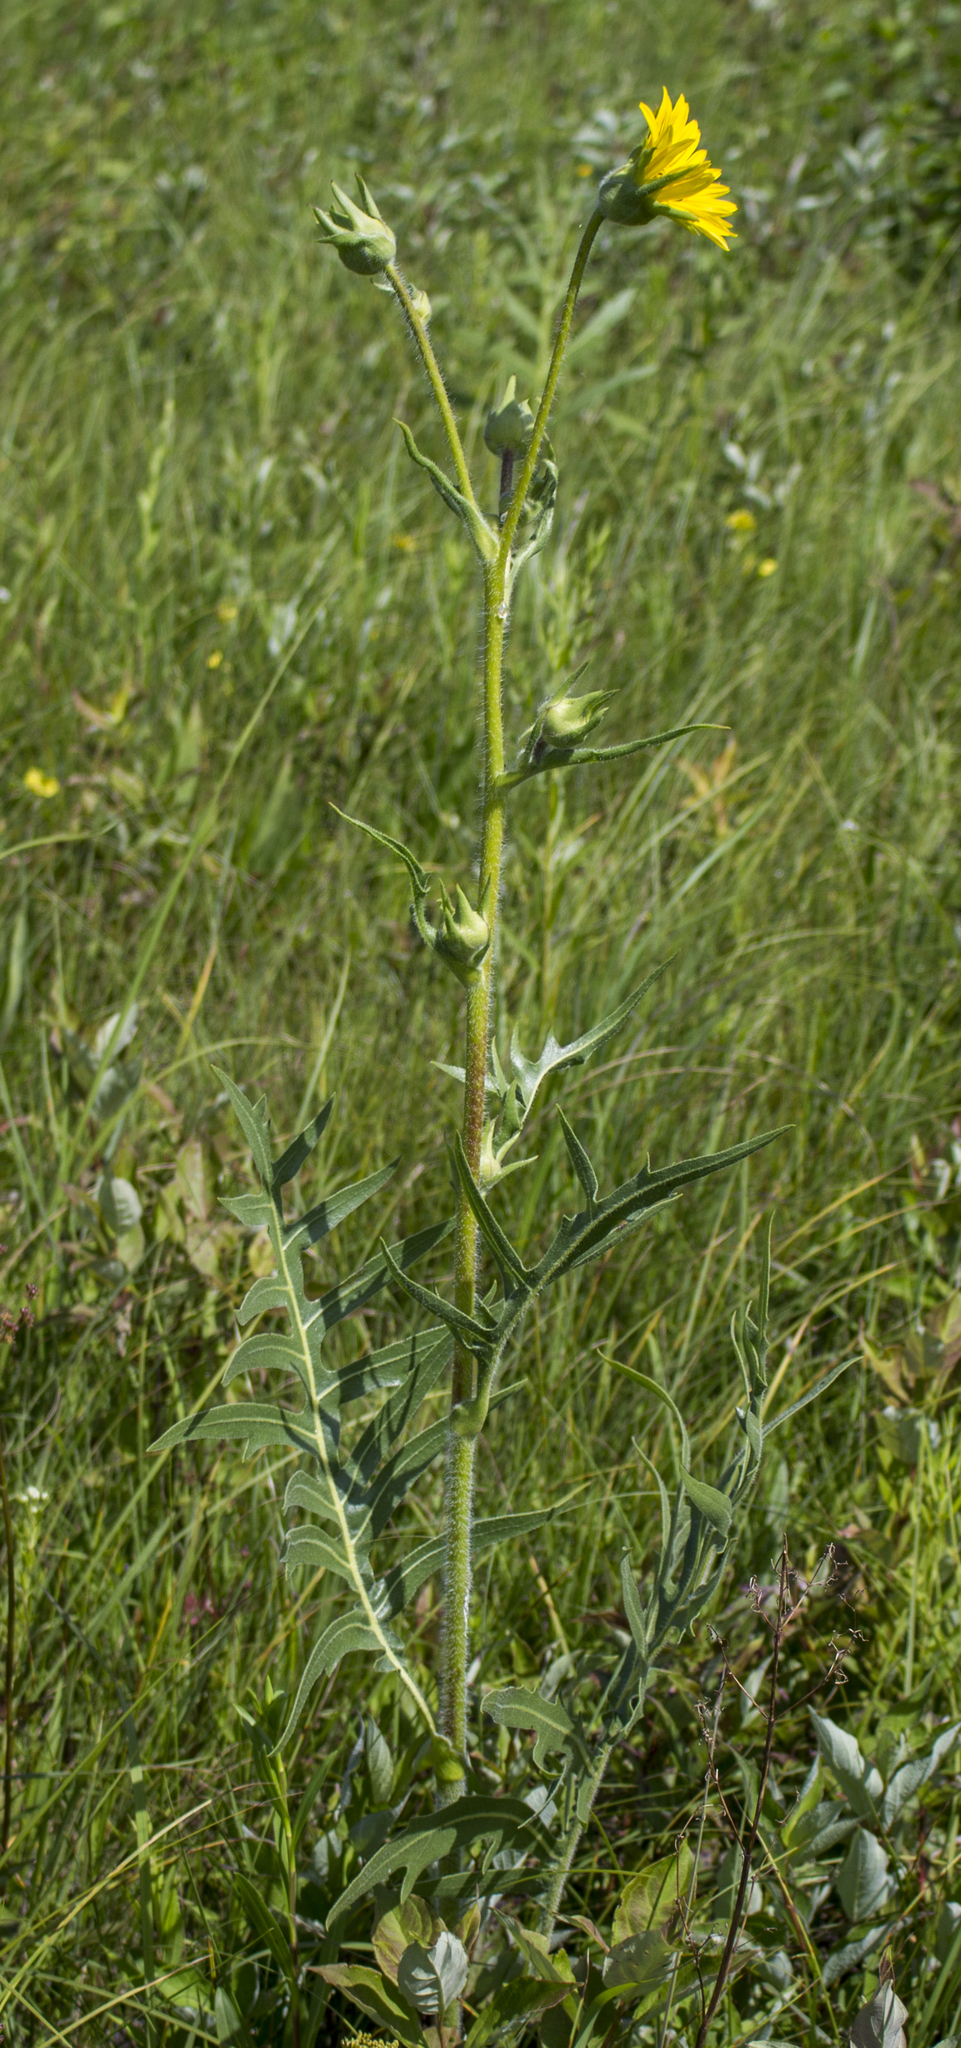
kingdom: Plantae
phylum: Tracheophyta
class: Magnoliopsida
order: Asterales
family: Asteraceae
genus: Silphium
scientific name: Silphium laciniatum
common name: Polarplant
